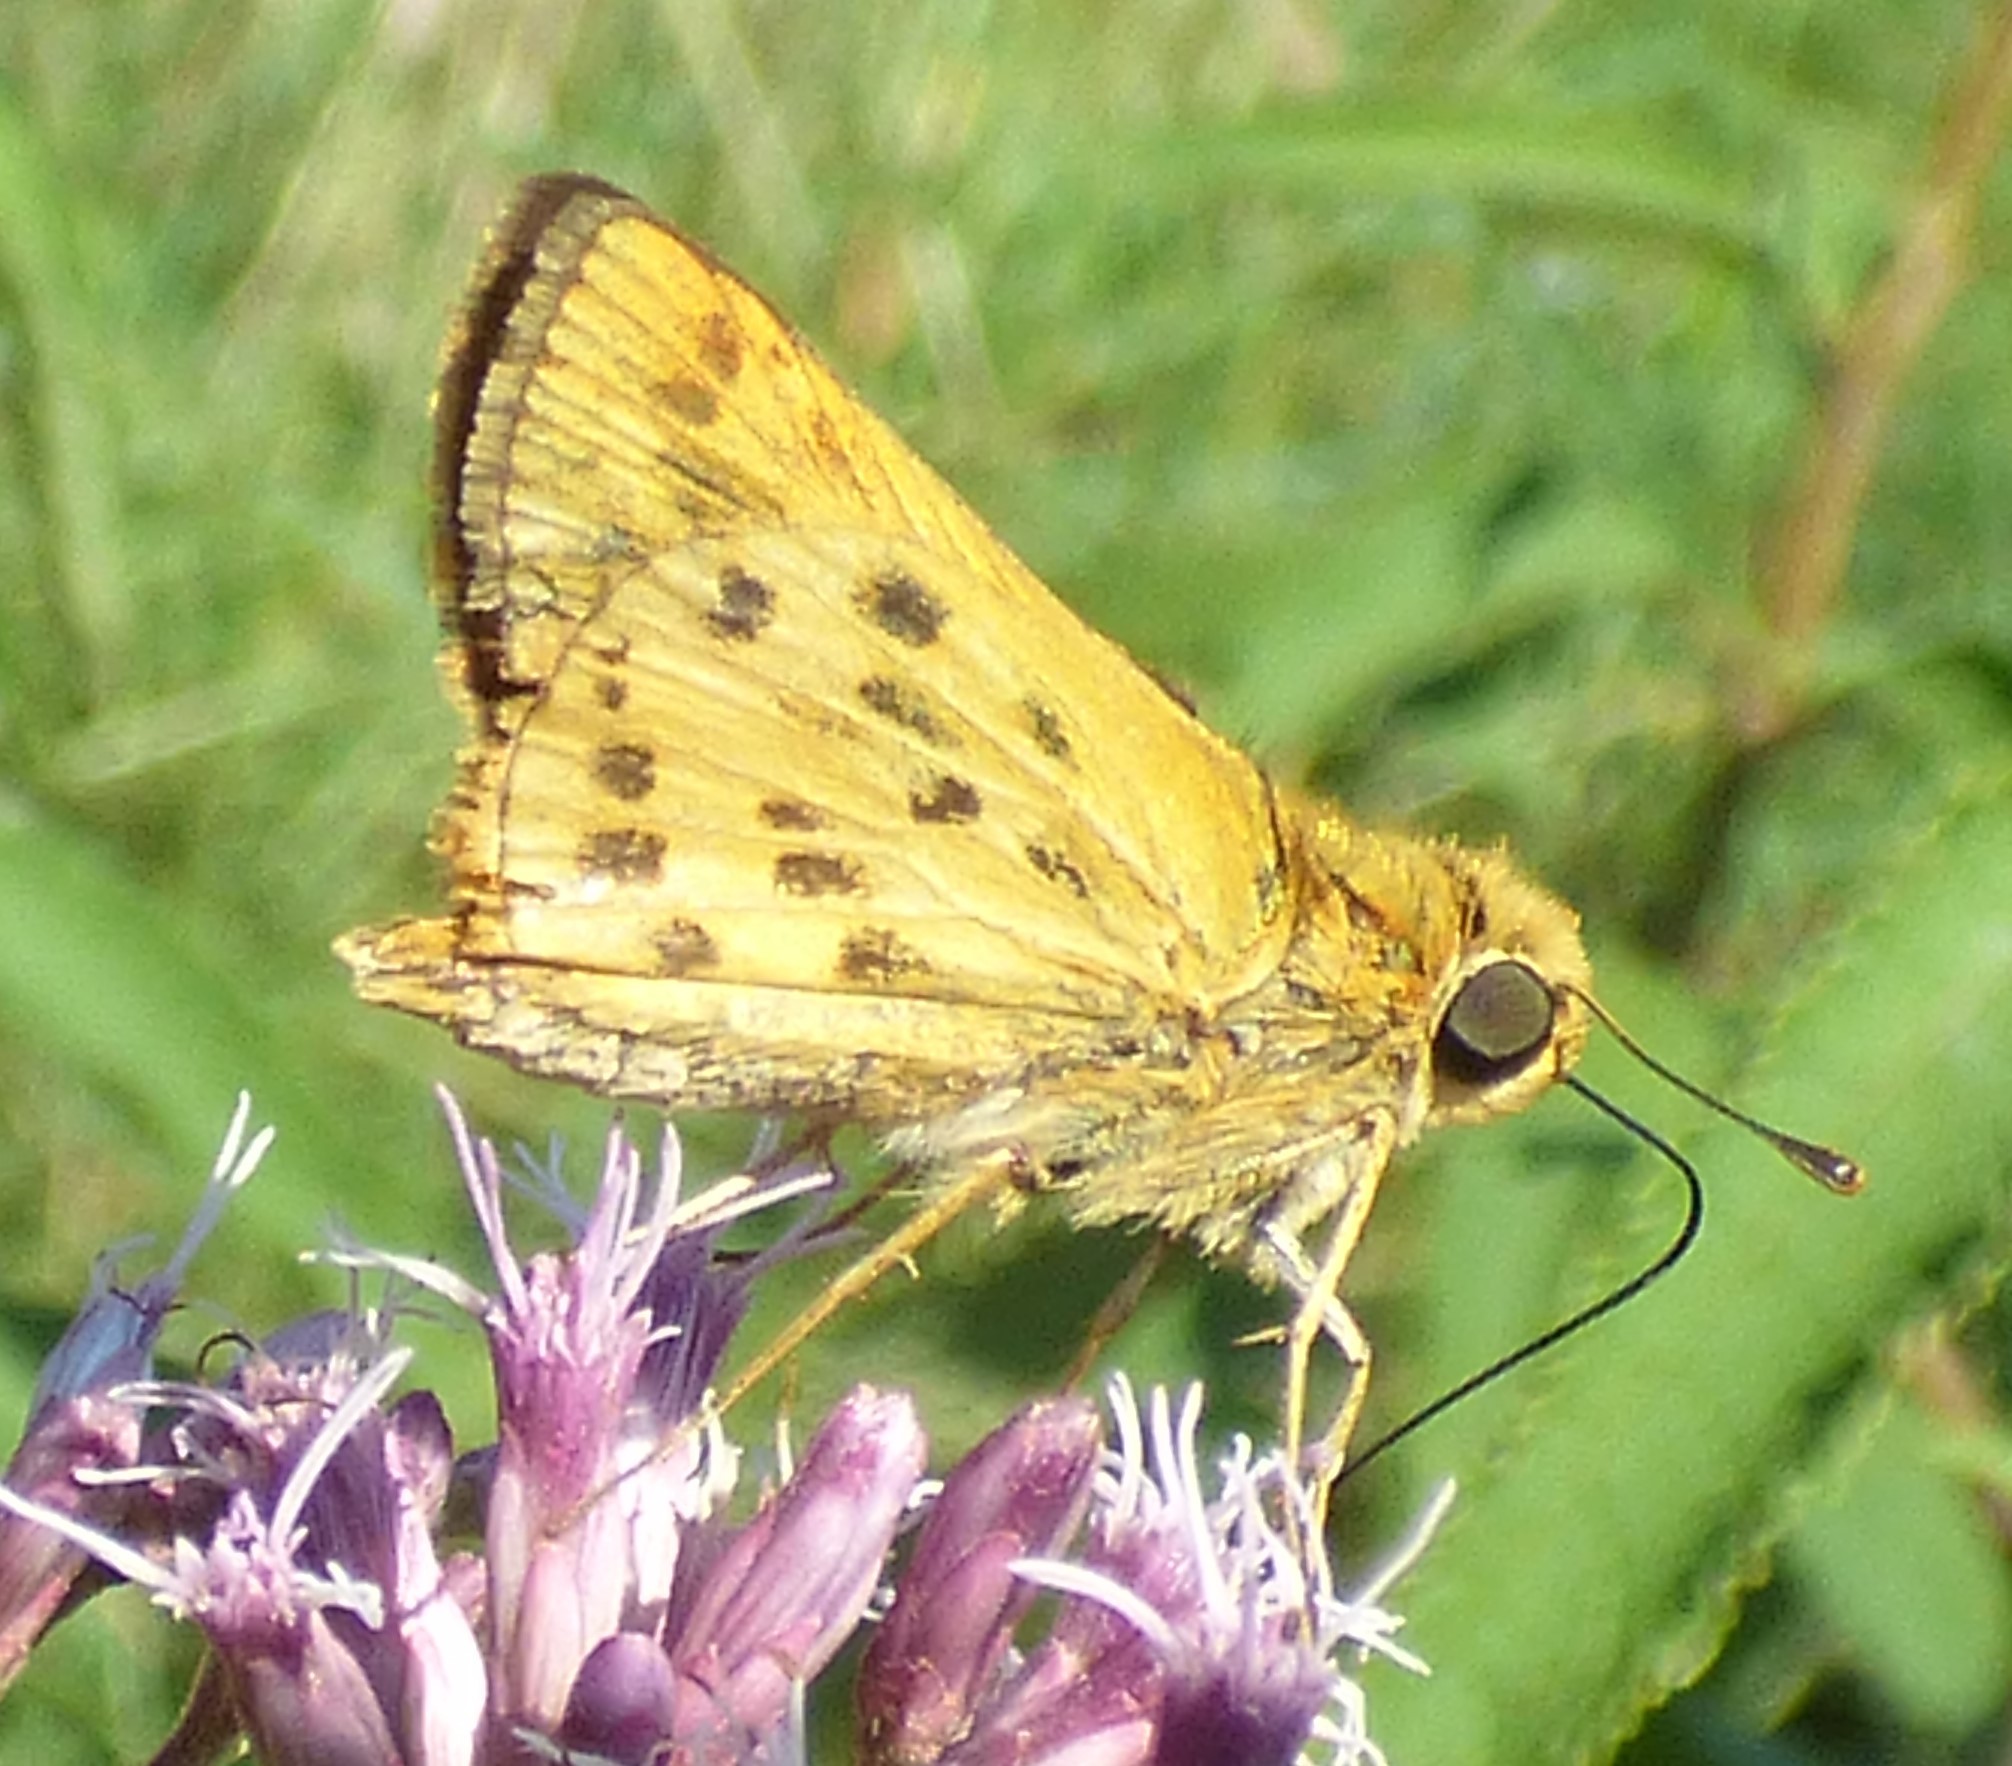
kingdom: Animalia
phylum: Arthropoda
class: Insecta
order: Lepidoptera
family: Hesperiidae
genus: Hylephila
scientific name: Hylephila phyleus
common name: Fiery skipper
